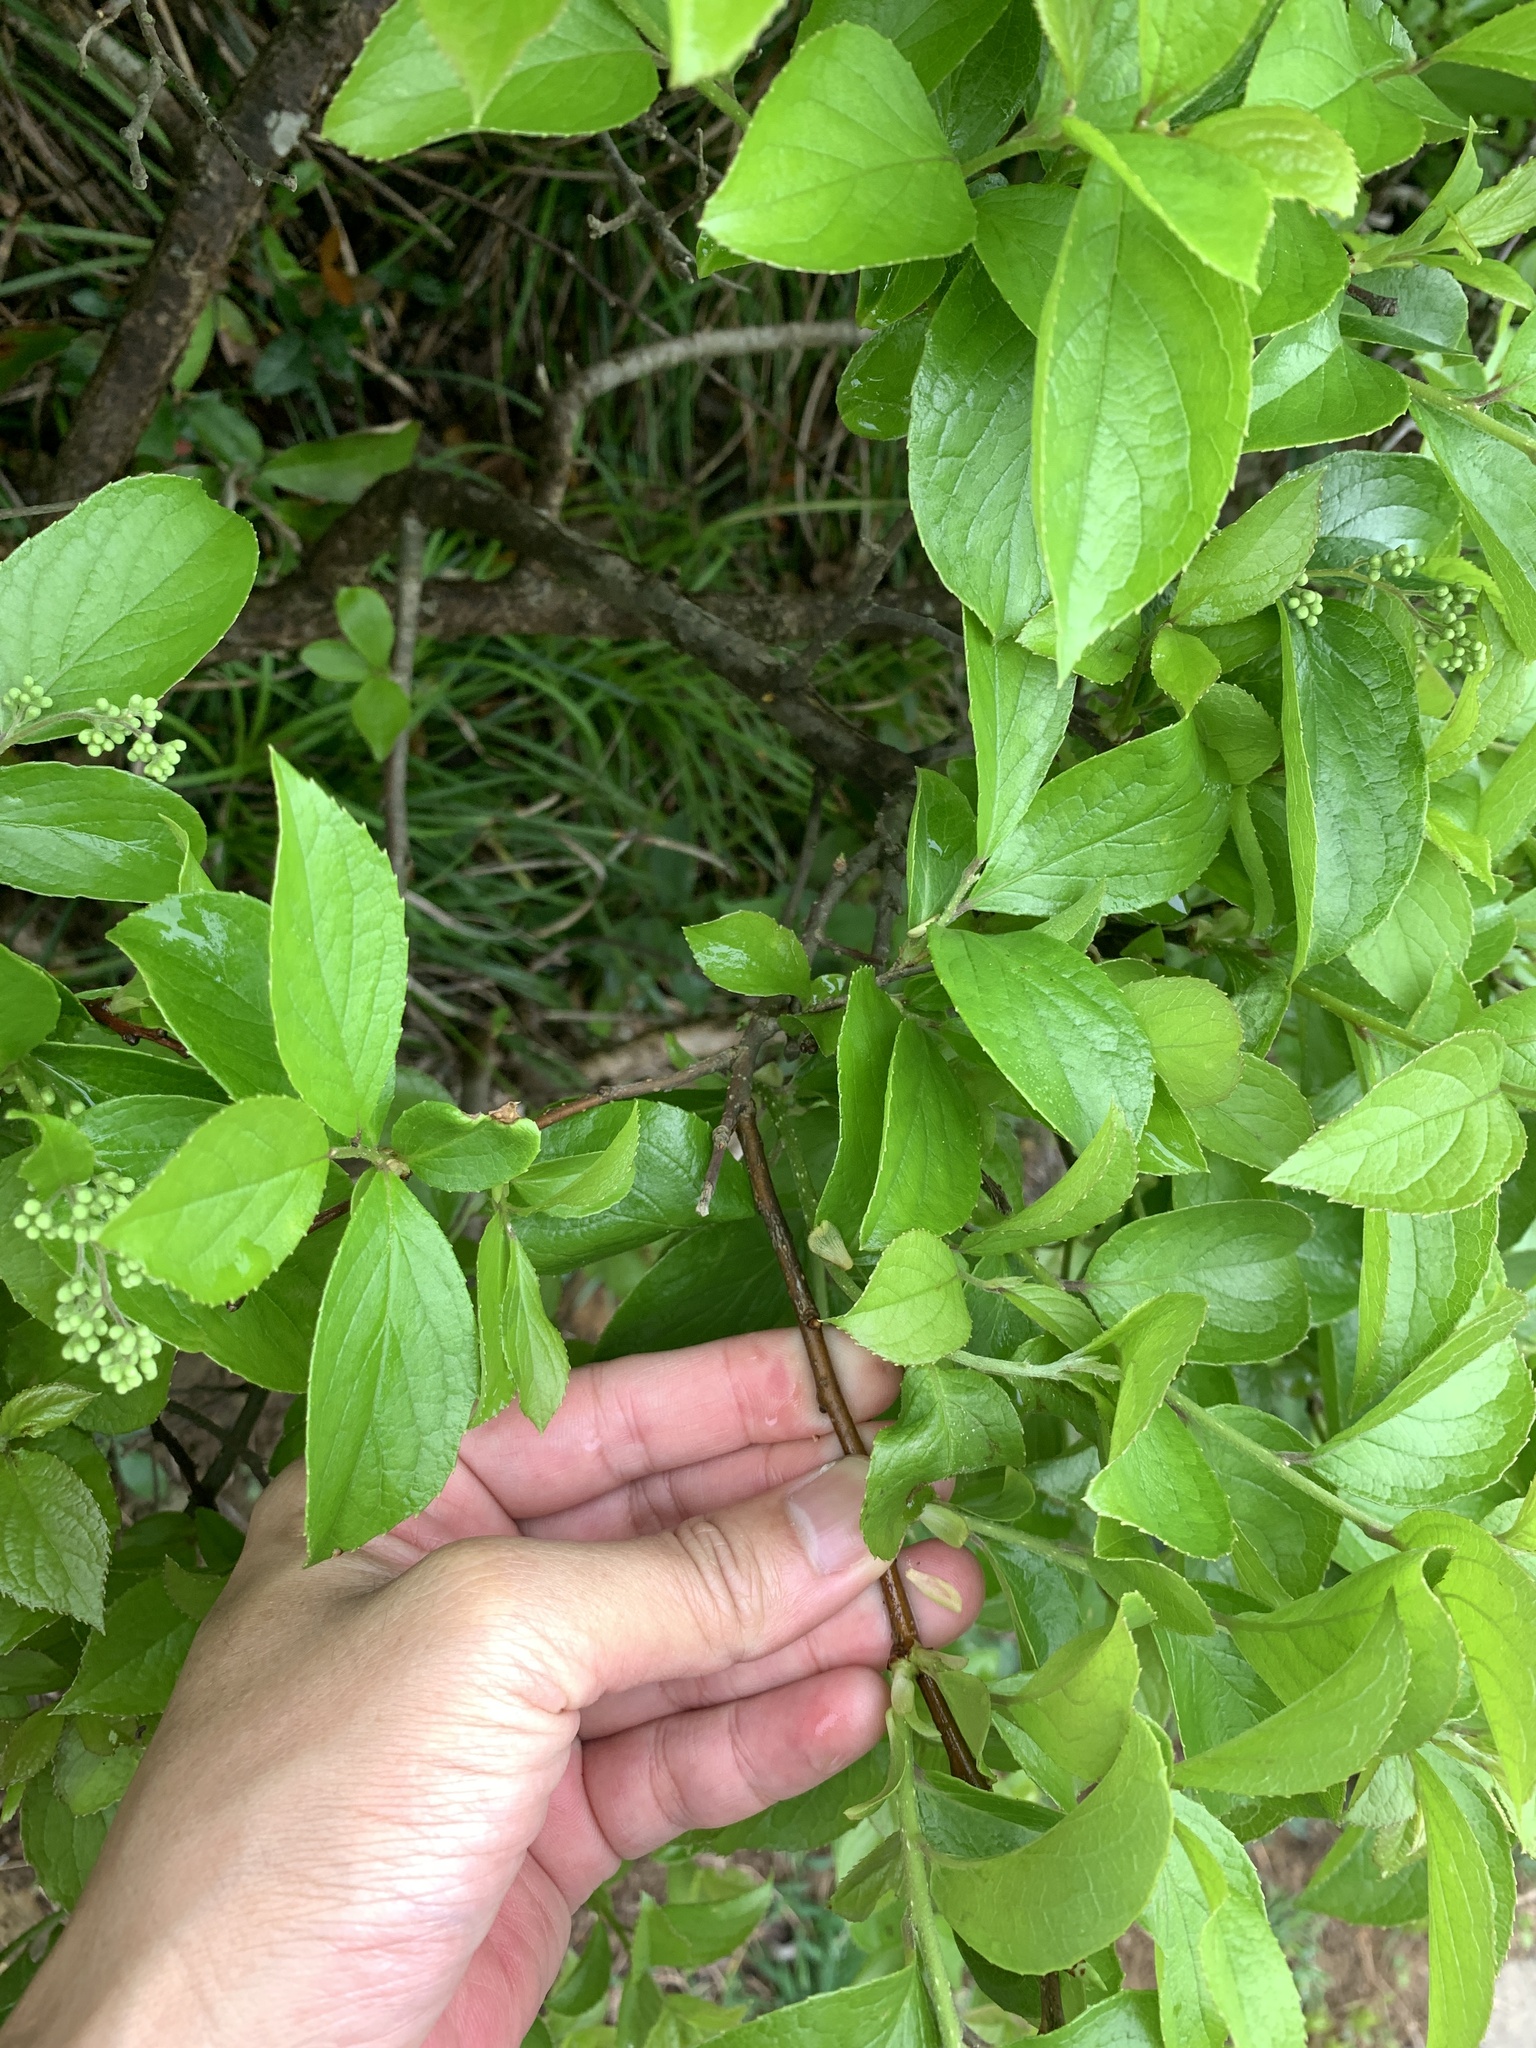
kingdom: Plantae
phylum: Tracheophyta
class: Magnoliopsida
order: Ericales
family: Symplocaceae
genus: Symplocos
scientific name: Symplocos paniculata
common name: Sapphire-berry
